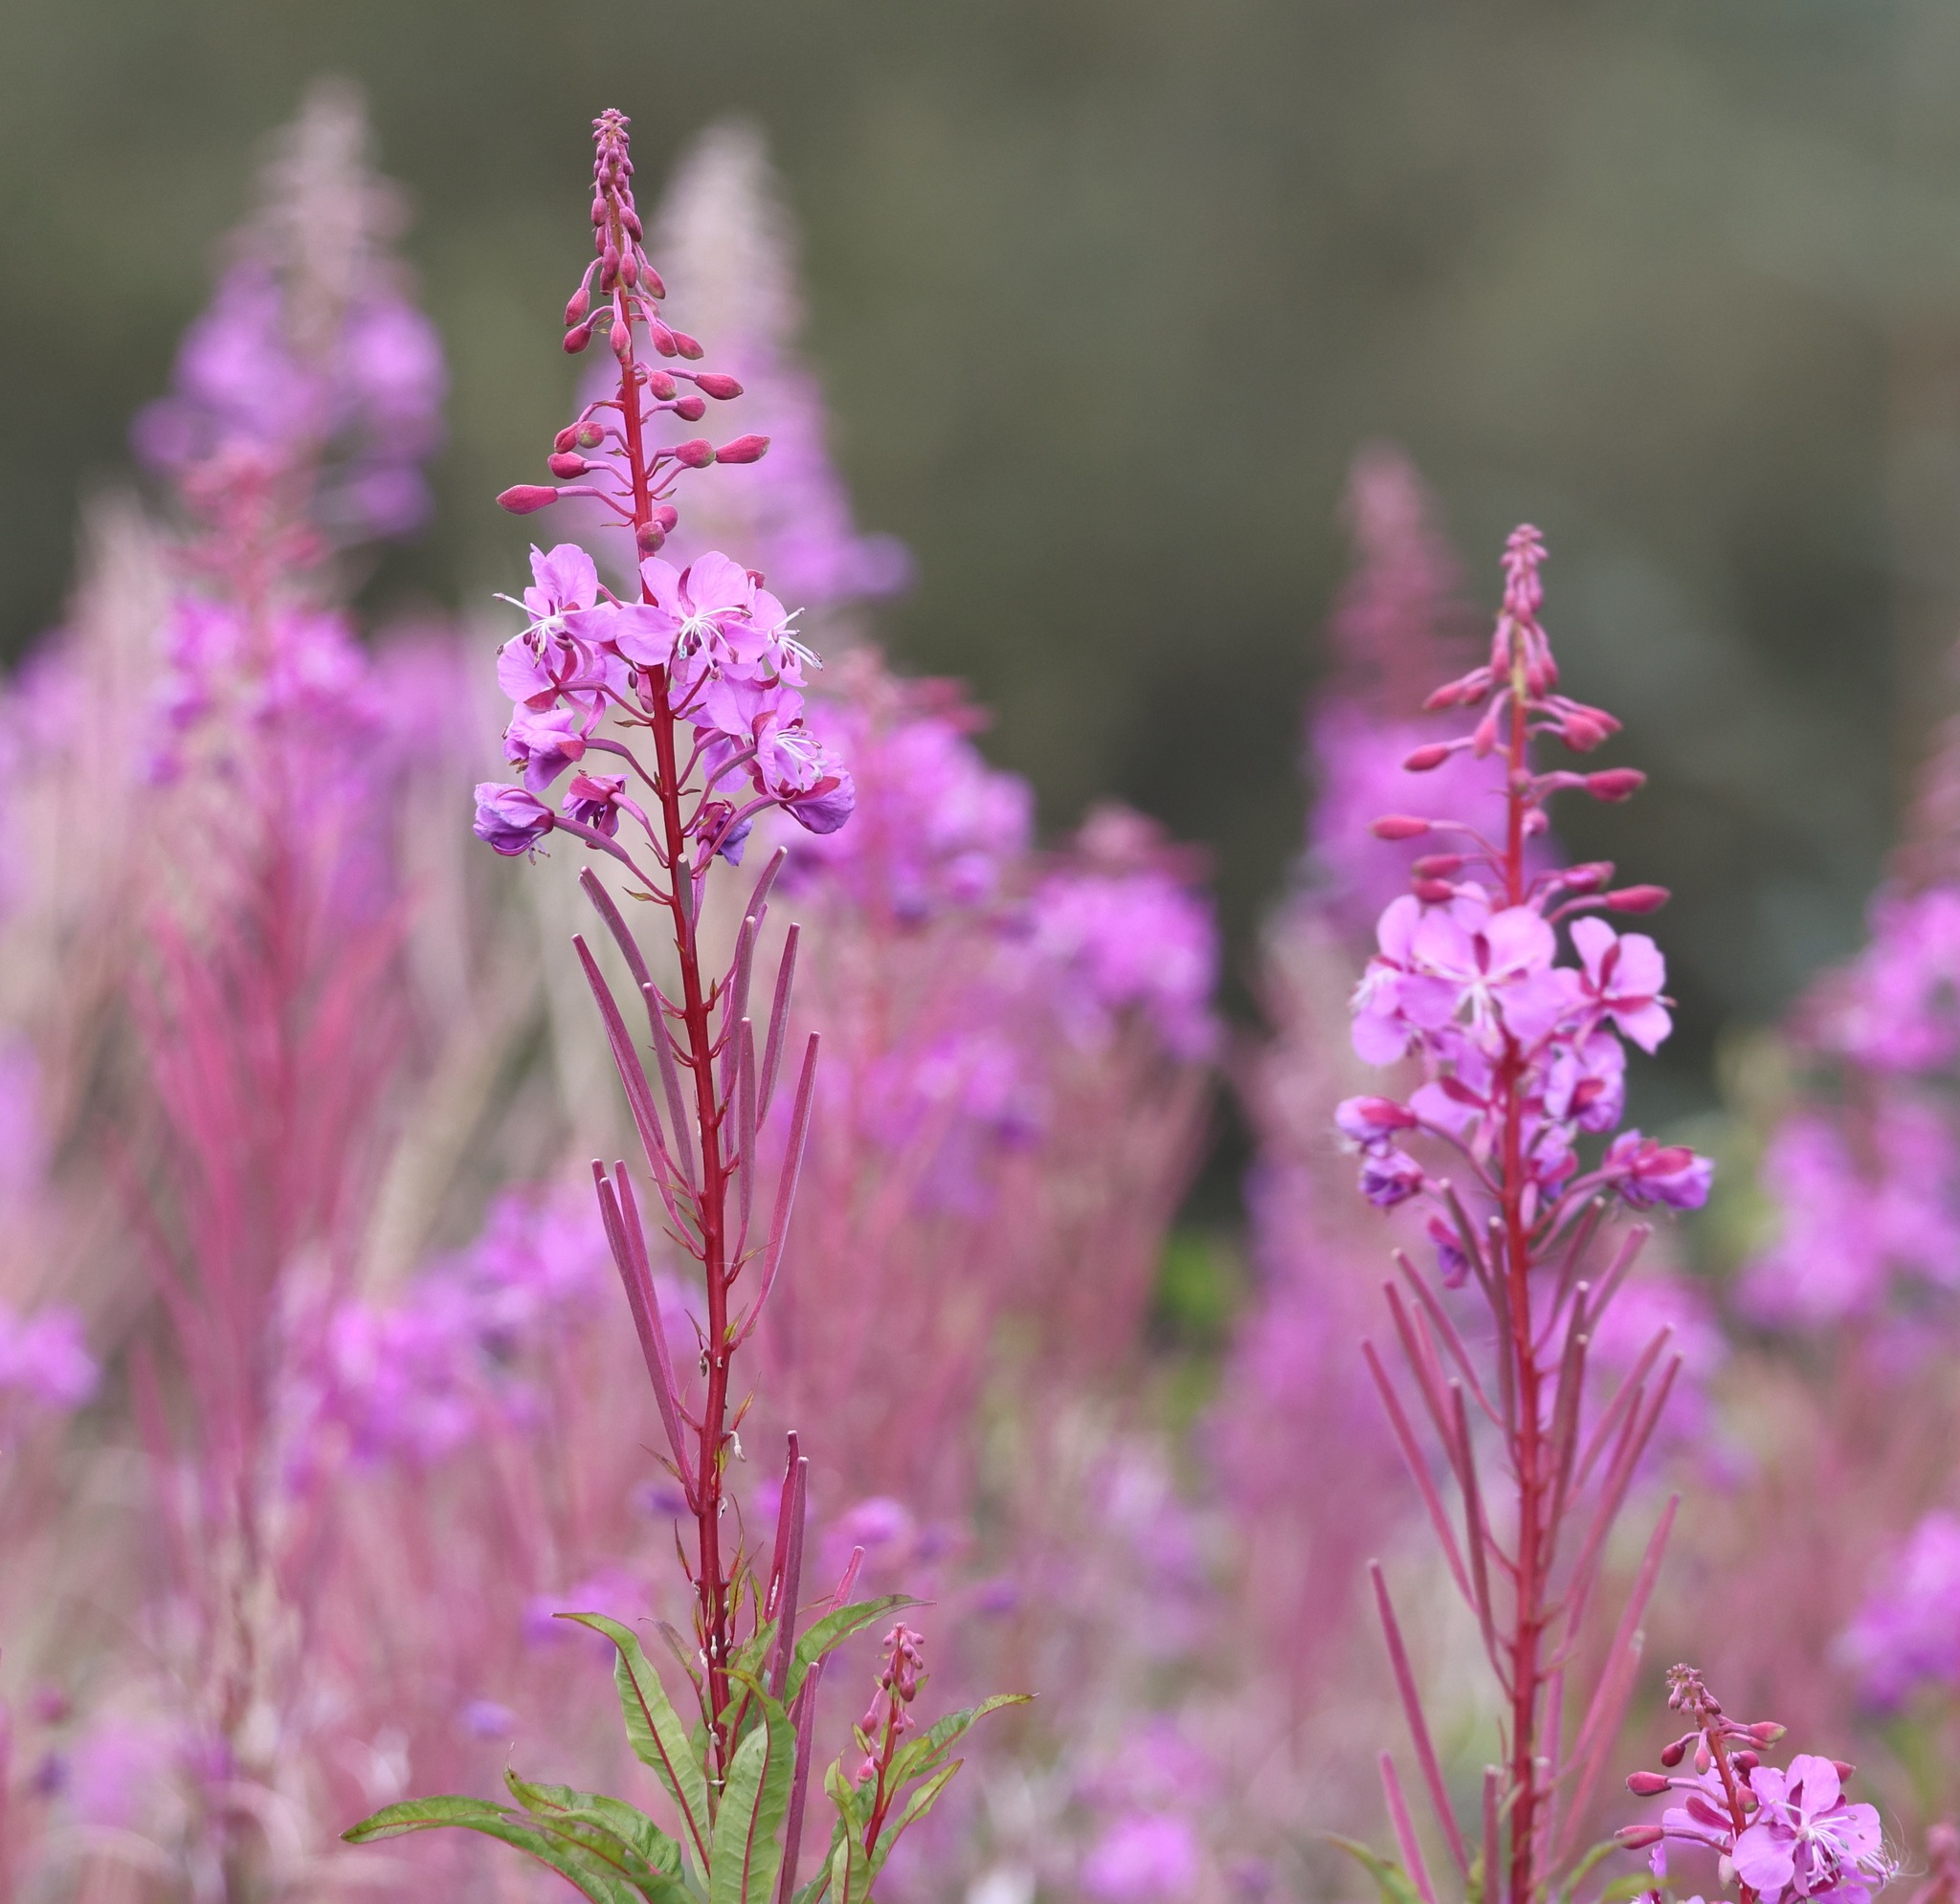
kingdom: Plantae
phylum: Tracheophyta
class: Magnoliopsida
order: Myrtales
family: Onagraceae
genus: Chamaenerion
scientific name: Chamaenerion angustifolium
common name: Fireweed
